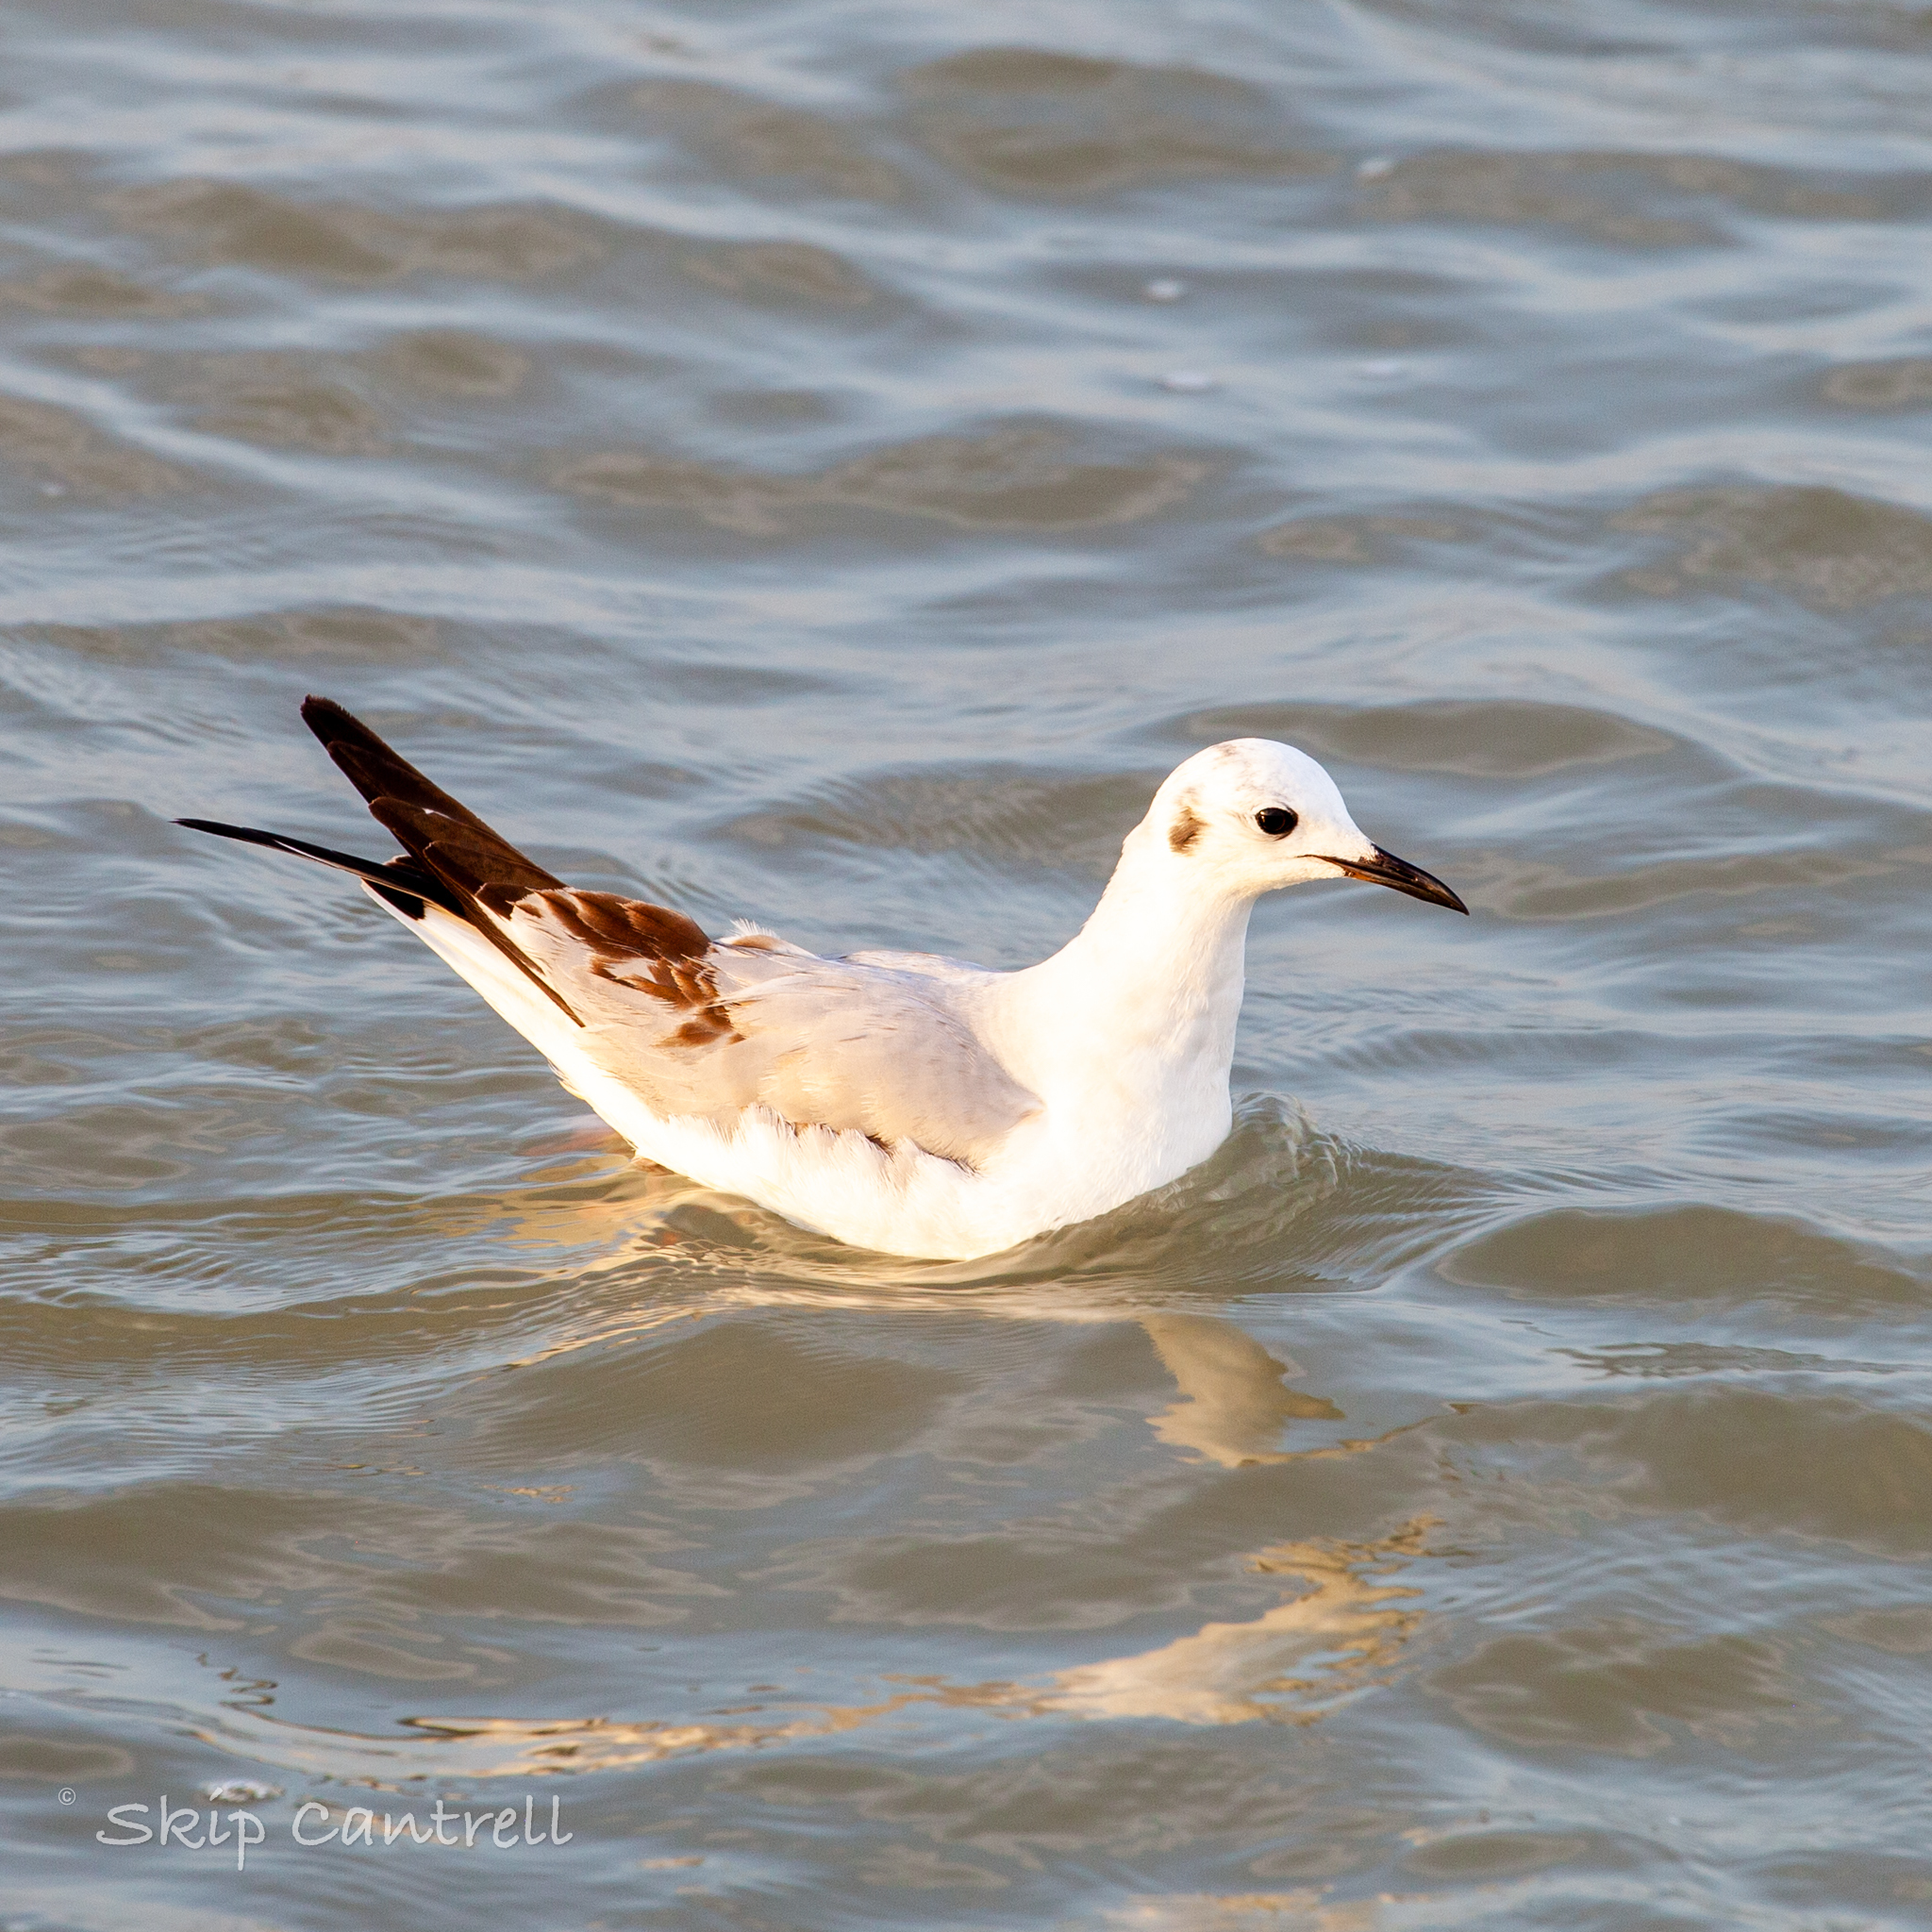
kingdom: Animalia
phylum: Chordata
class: Aves
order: Charadriiformes
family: Laridae
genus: Chroicocephalus
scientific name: Chroicocephalus philadelphia
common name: Bonaparte's gull
